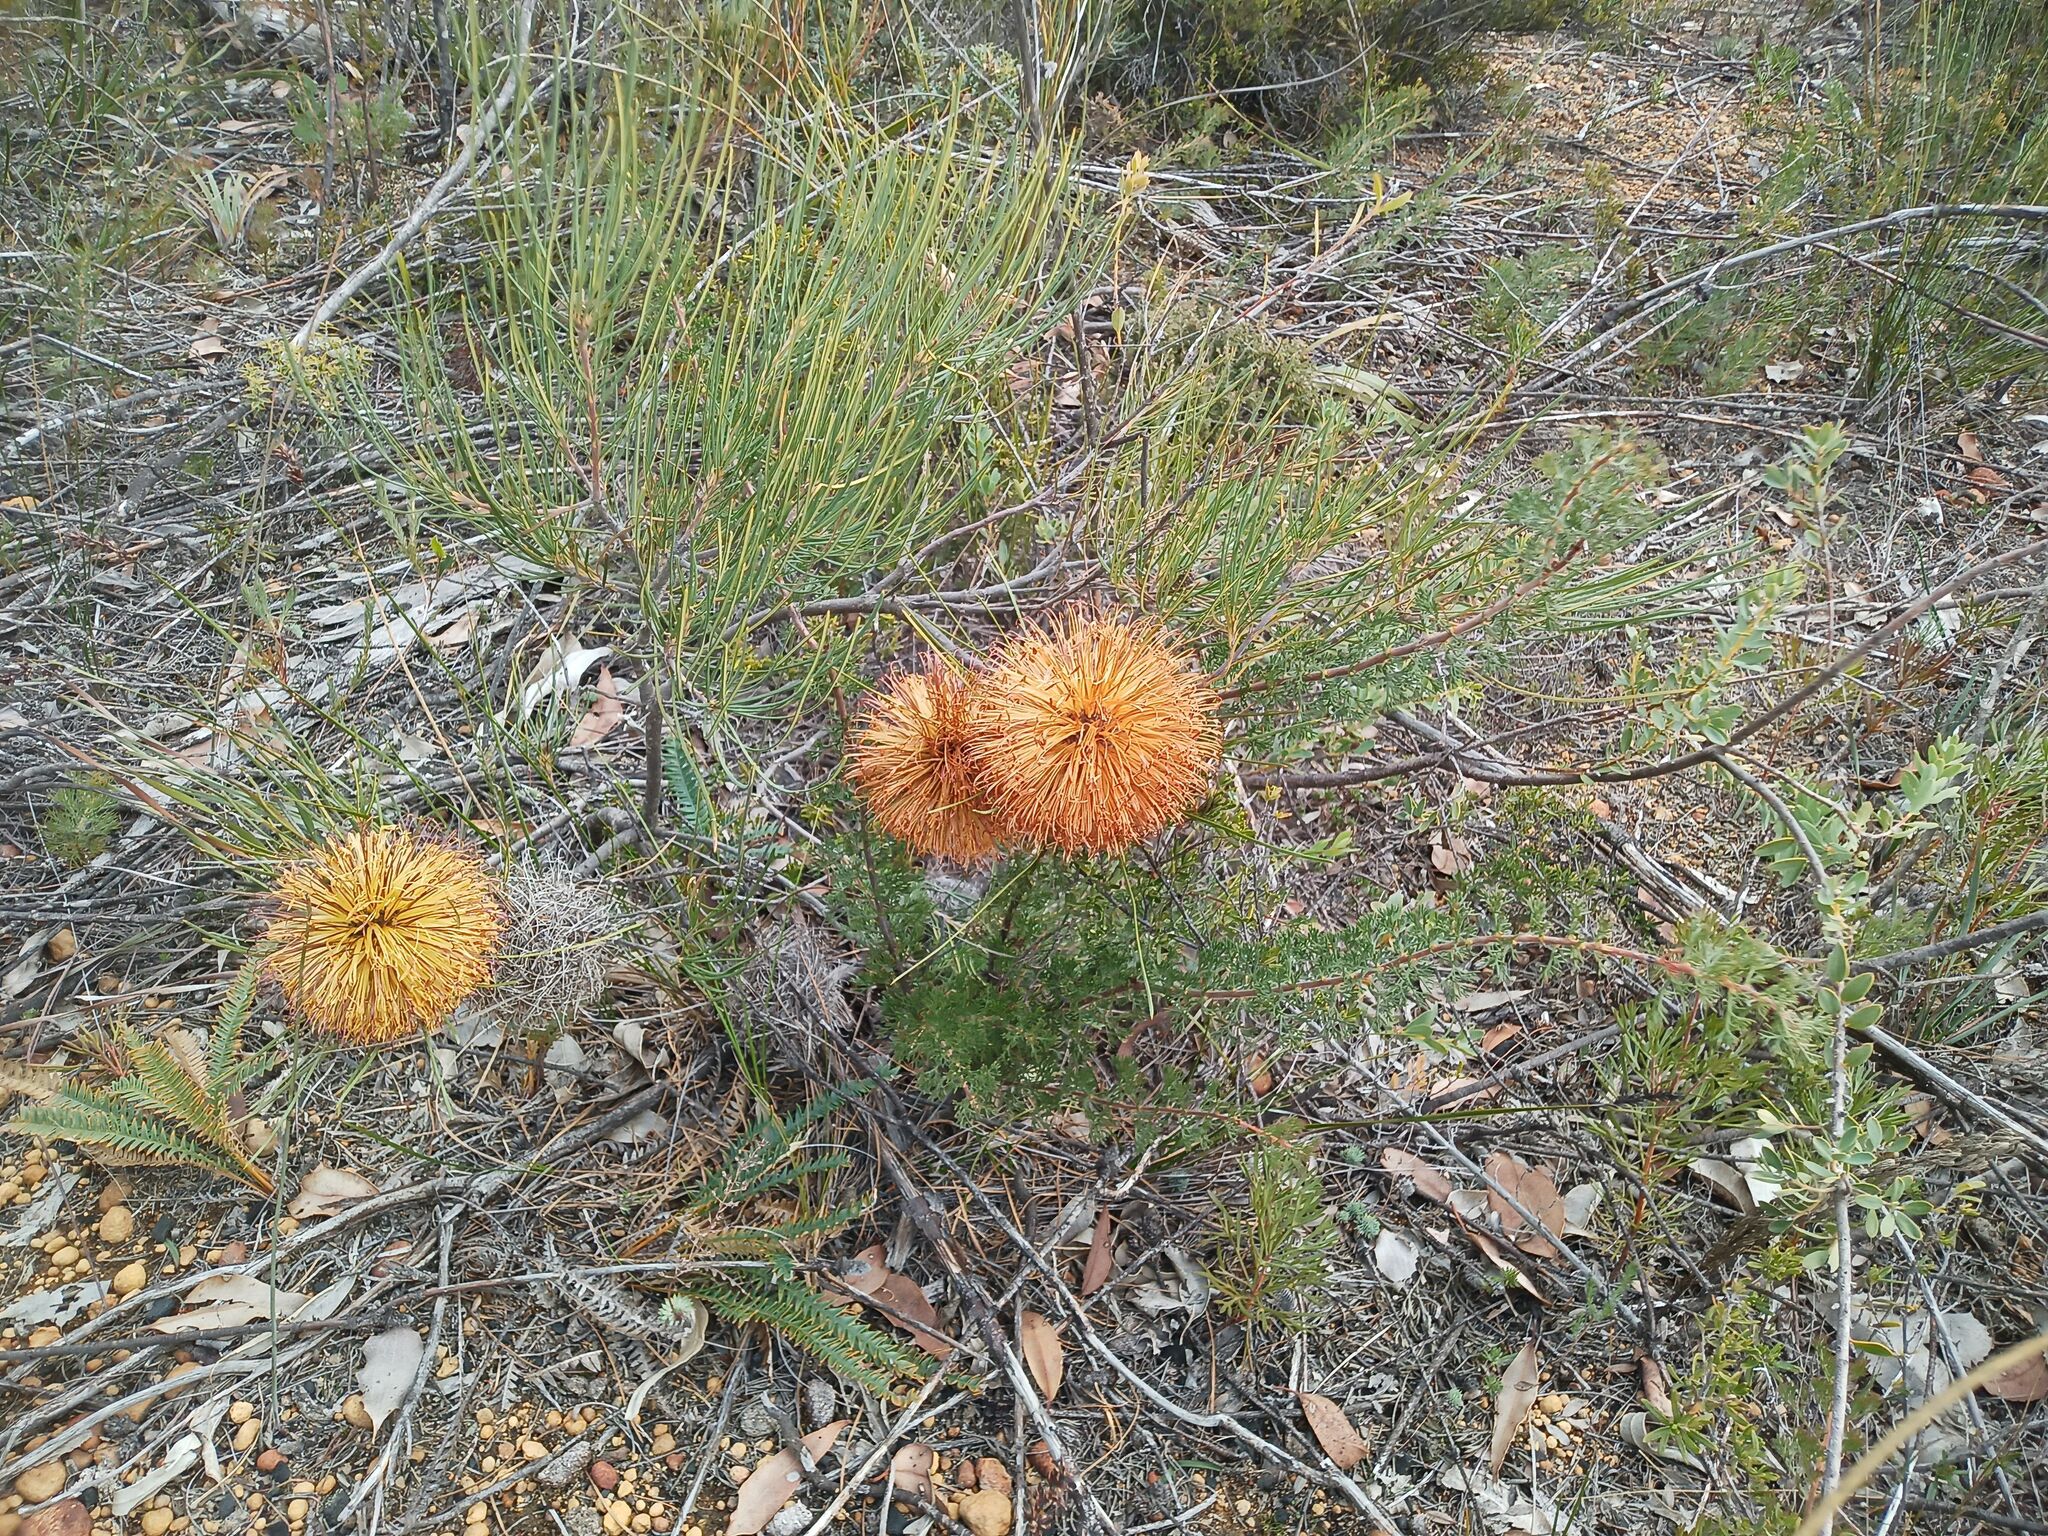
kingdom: Plantae
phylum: Tracheophyta
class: Magnoliopsida
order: Proteales
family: Proteaceae
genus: Banksia
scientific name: Banksia sphaerocarpa
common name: Fox banksia
